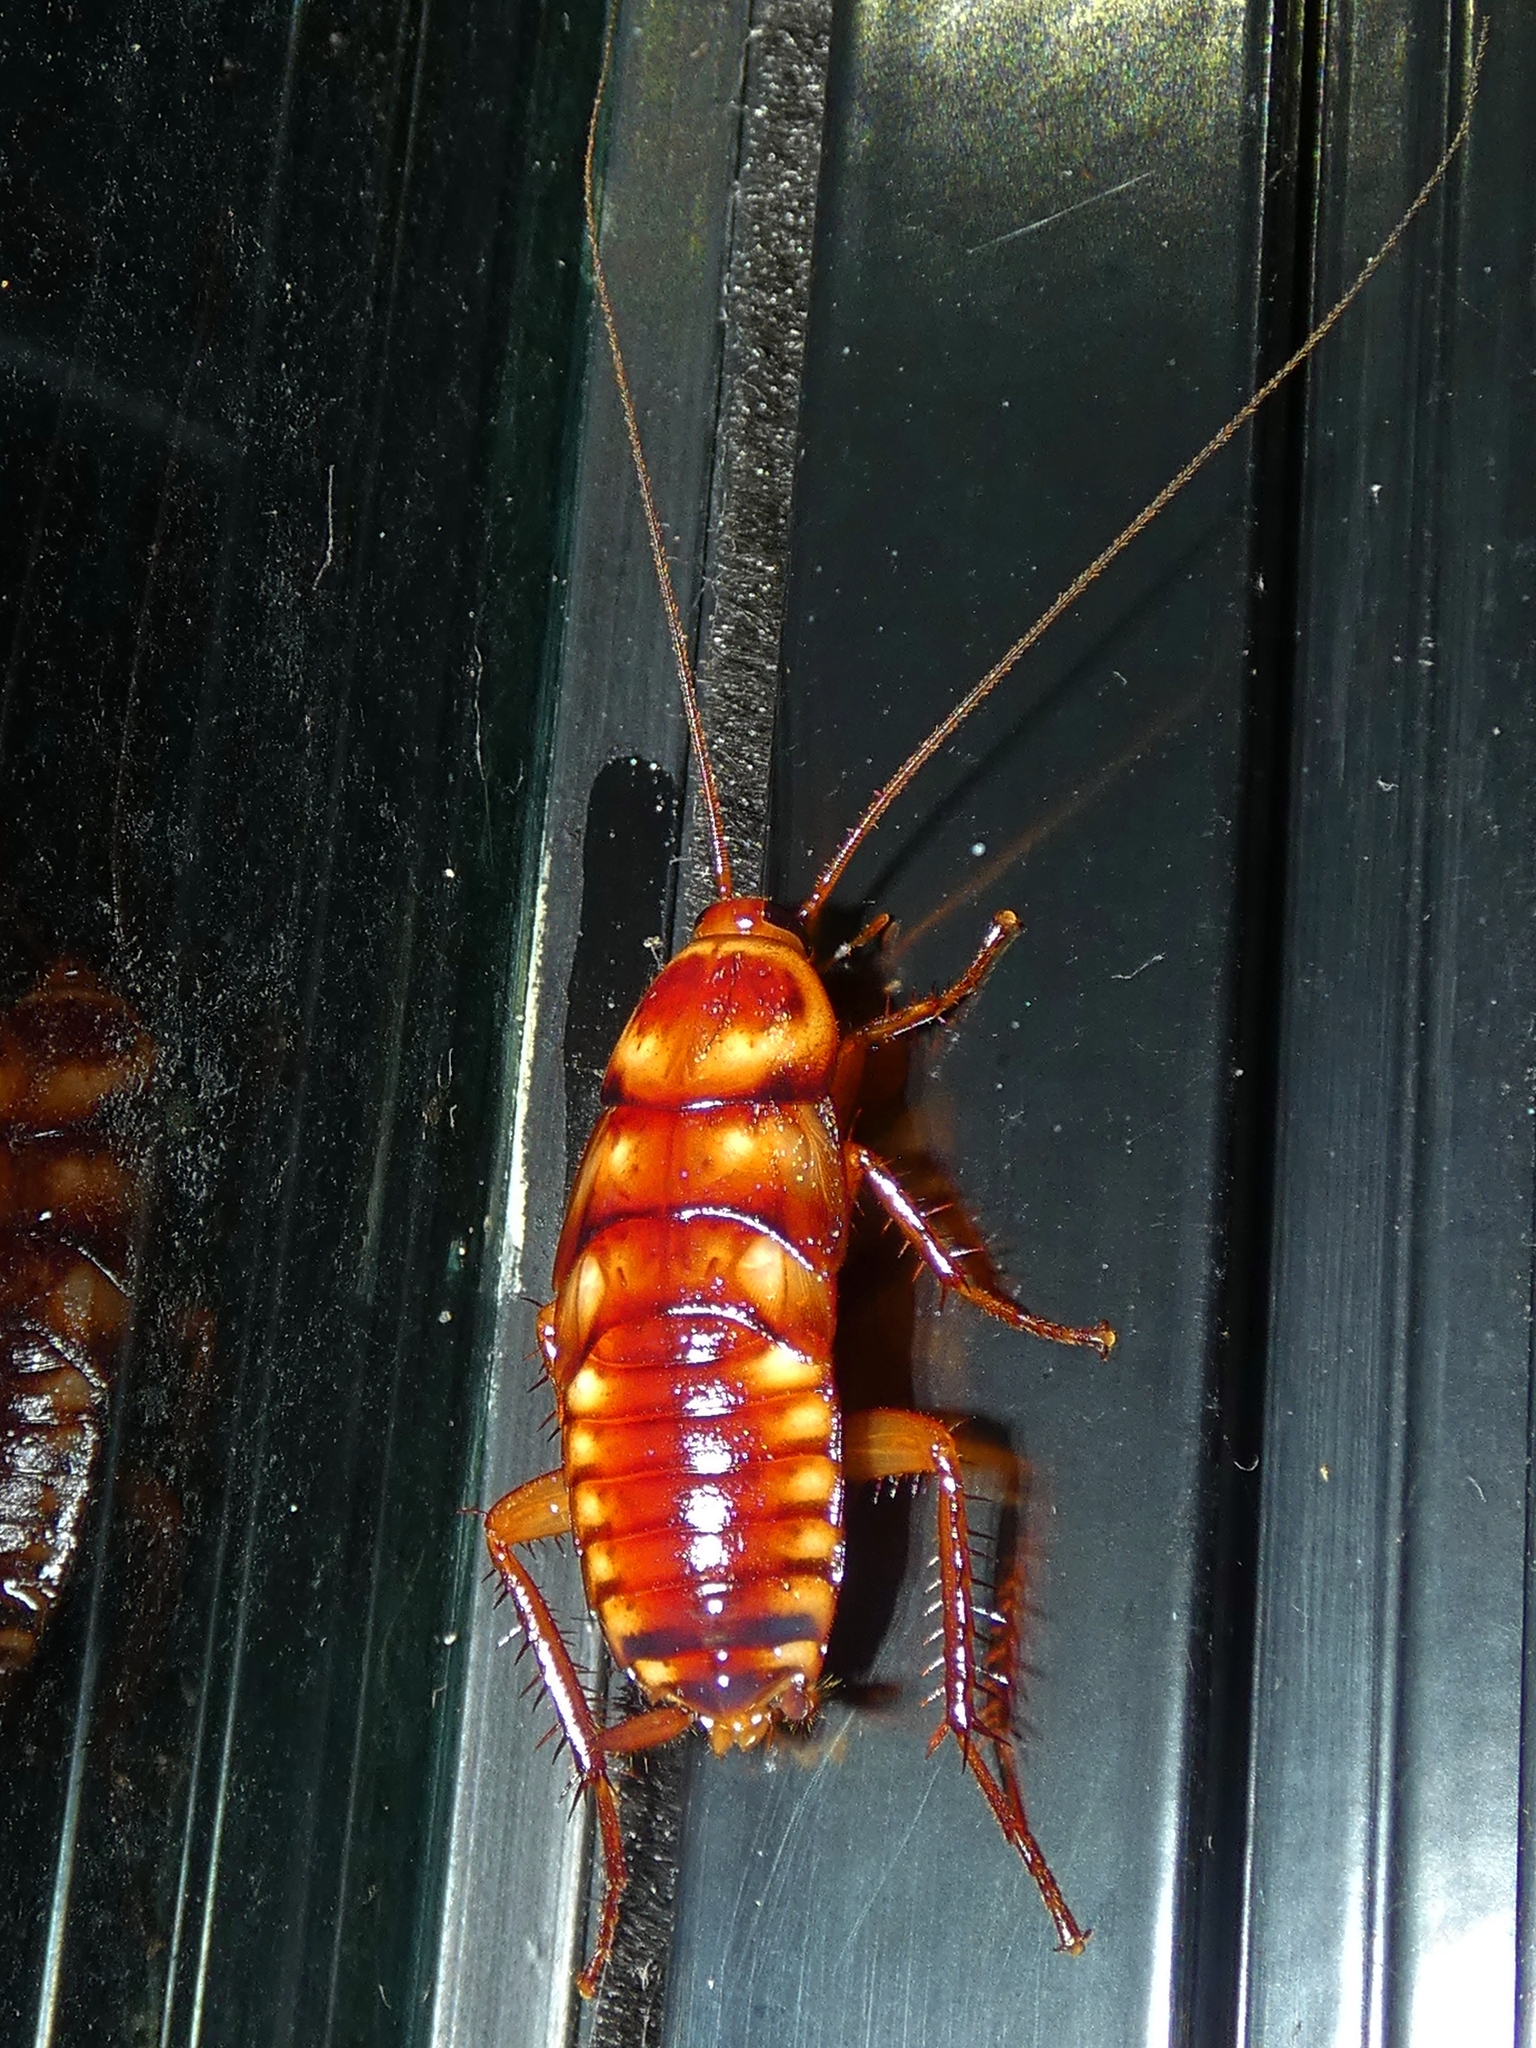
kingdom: Animalia
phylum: Arthropoda
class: Insecta
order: Blattodea
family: Blattidae
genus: Periplaneta
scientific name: Periplaneta australasiae
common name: Australian cockroach
